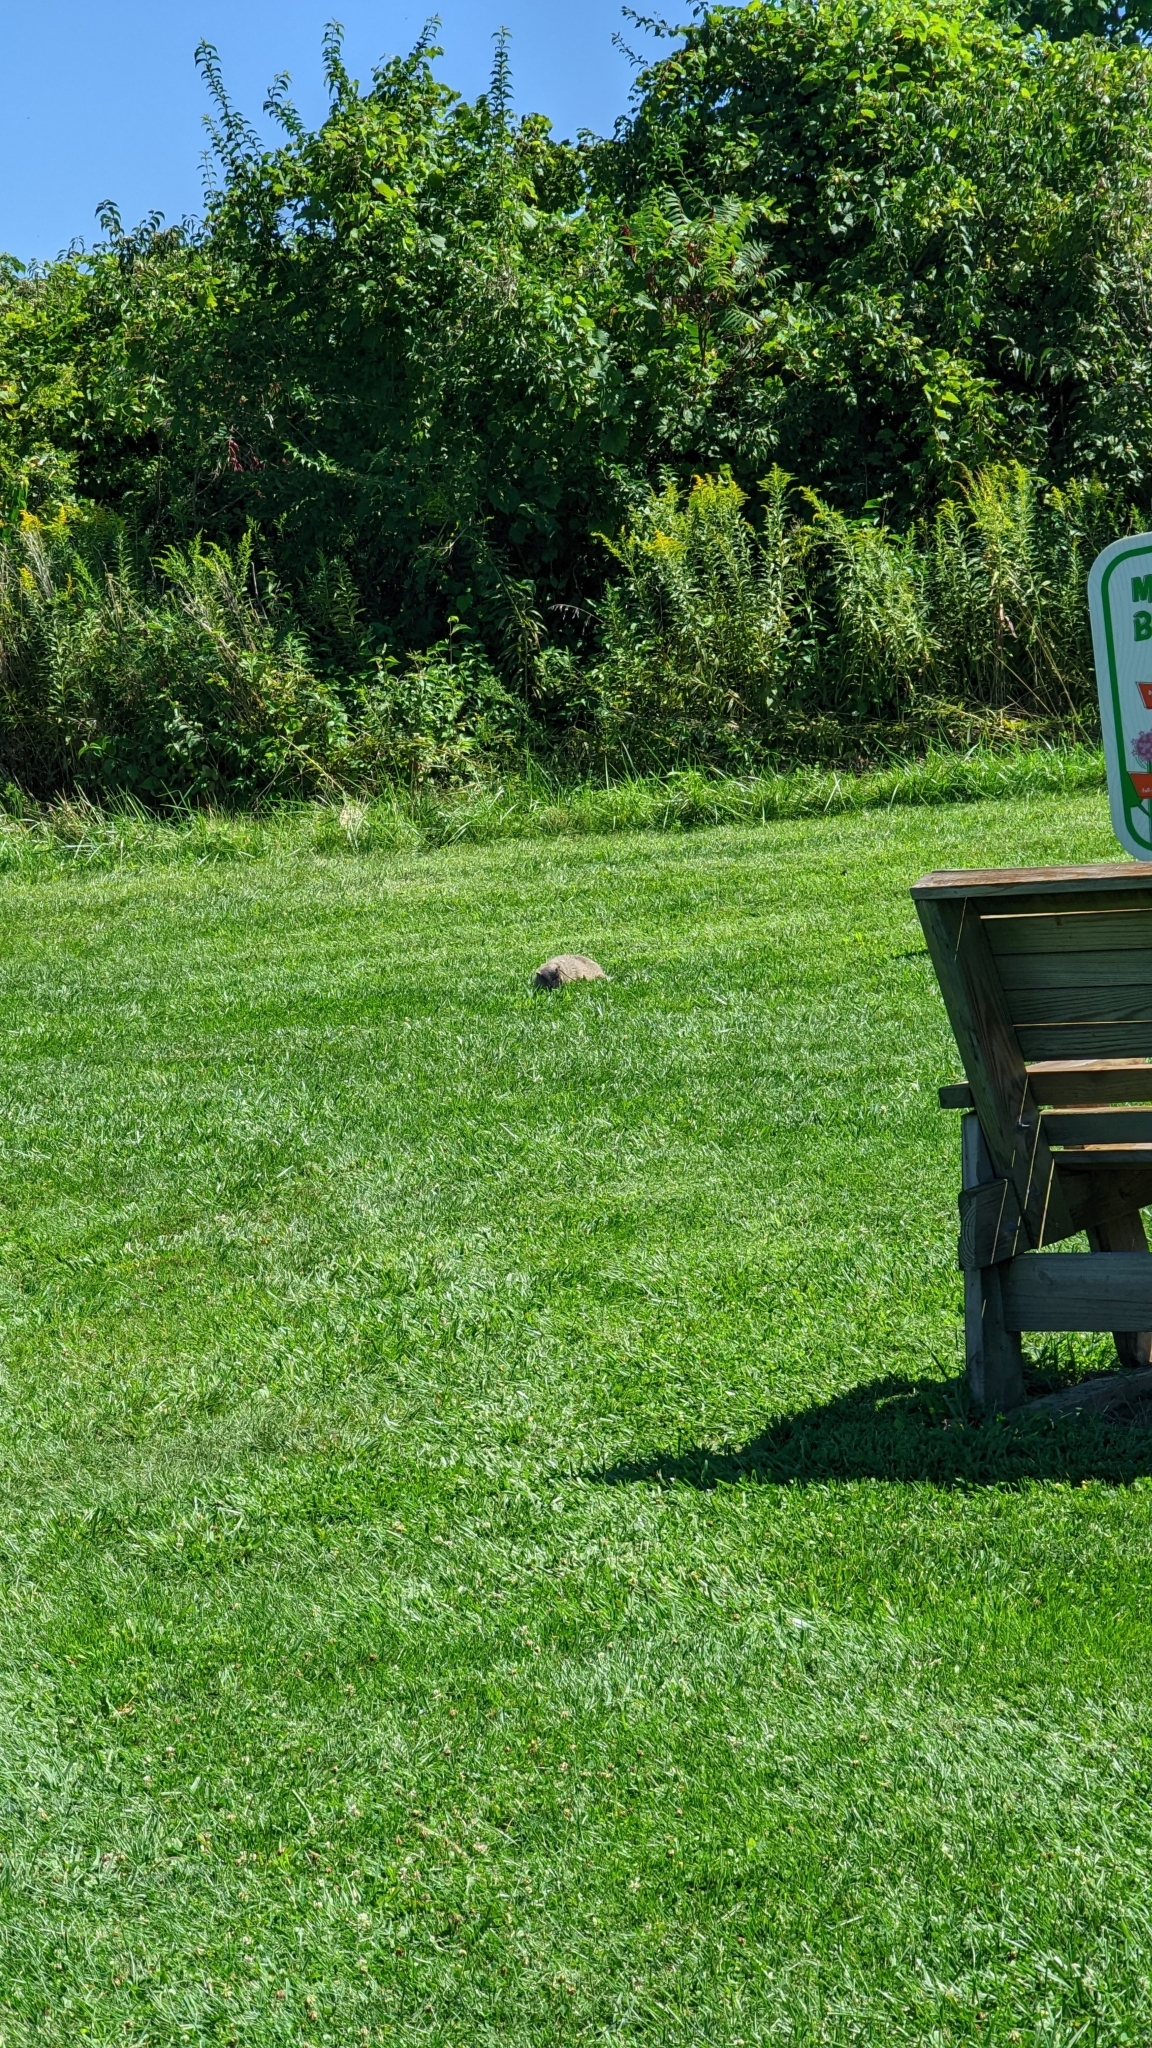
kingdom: Animalia
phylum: Chordata
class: Mammalia
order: Rodentia
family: Sciuridae
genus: Marmota
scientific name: Marmota monax
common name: Groundhog
